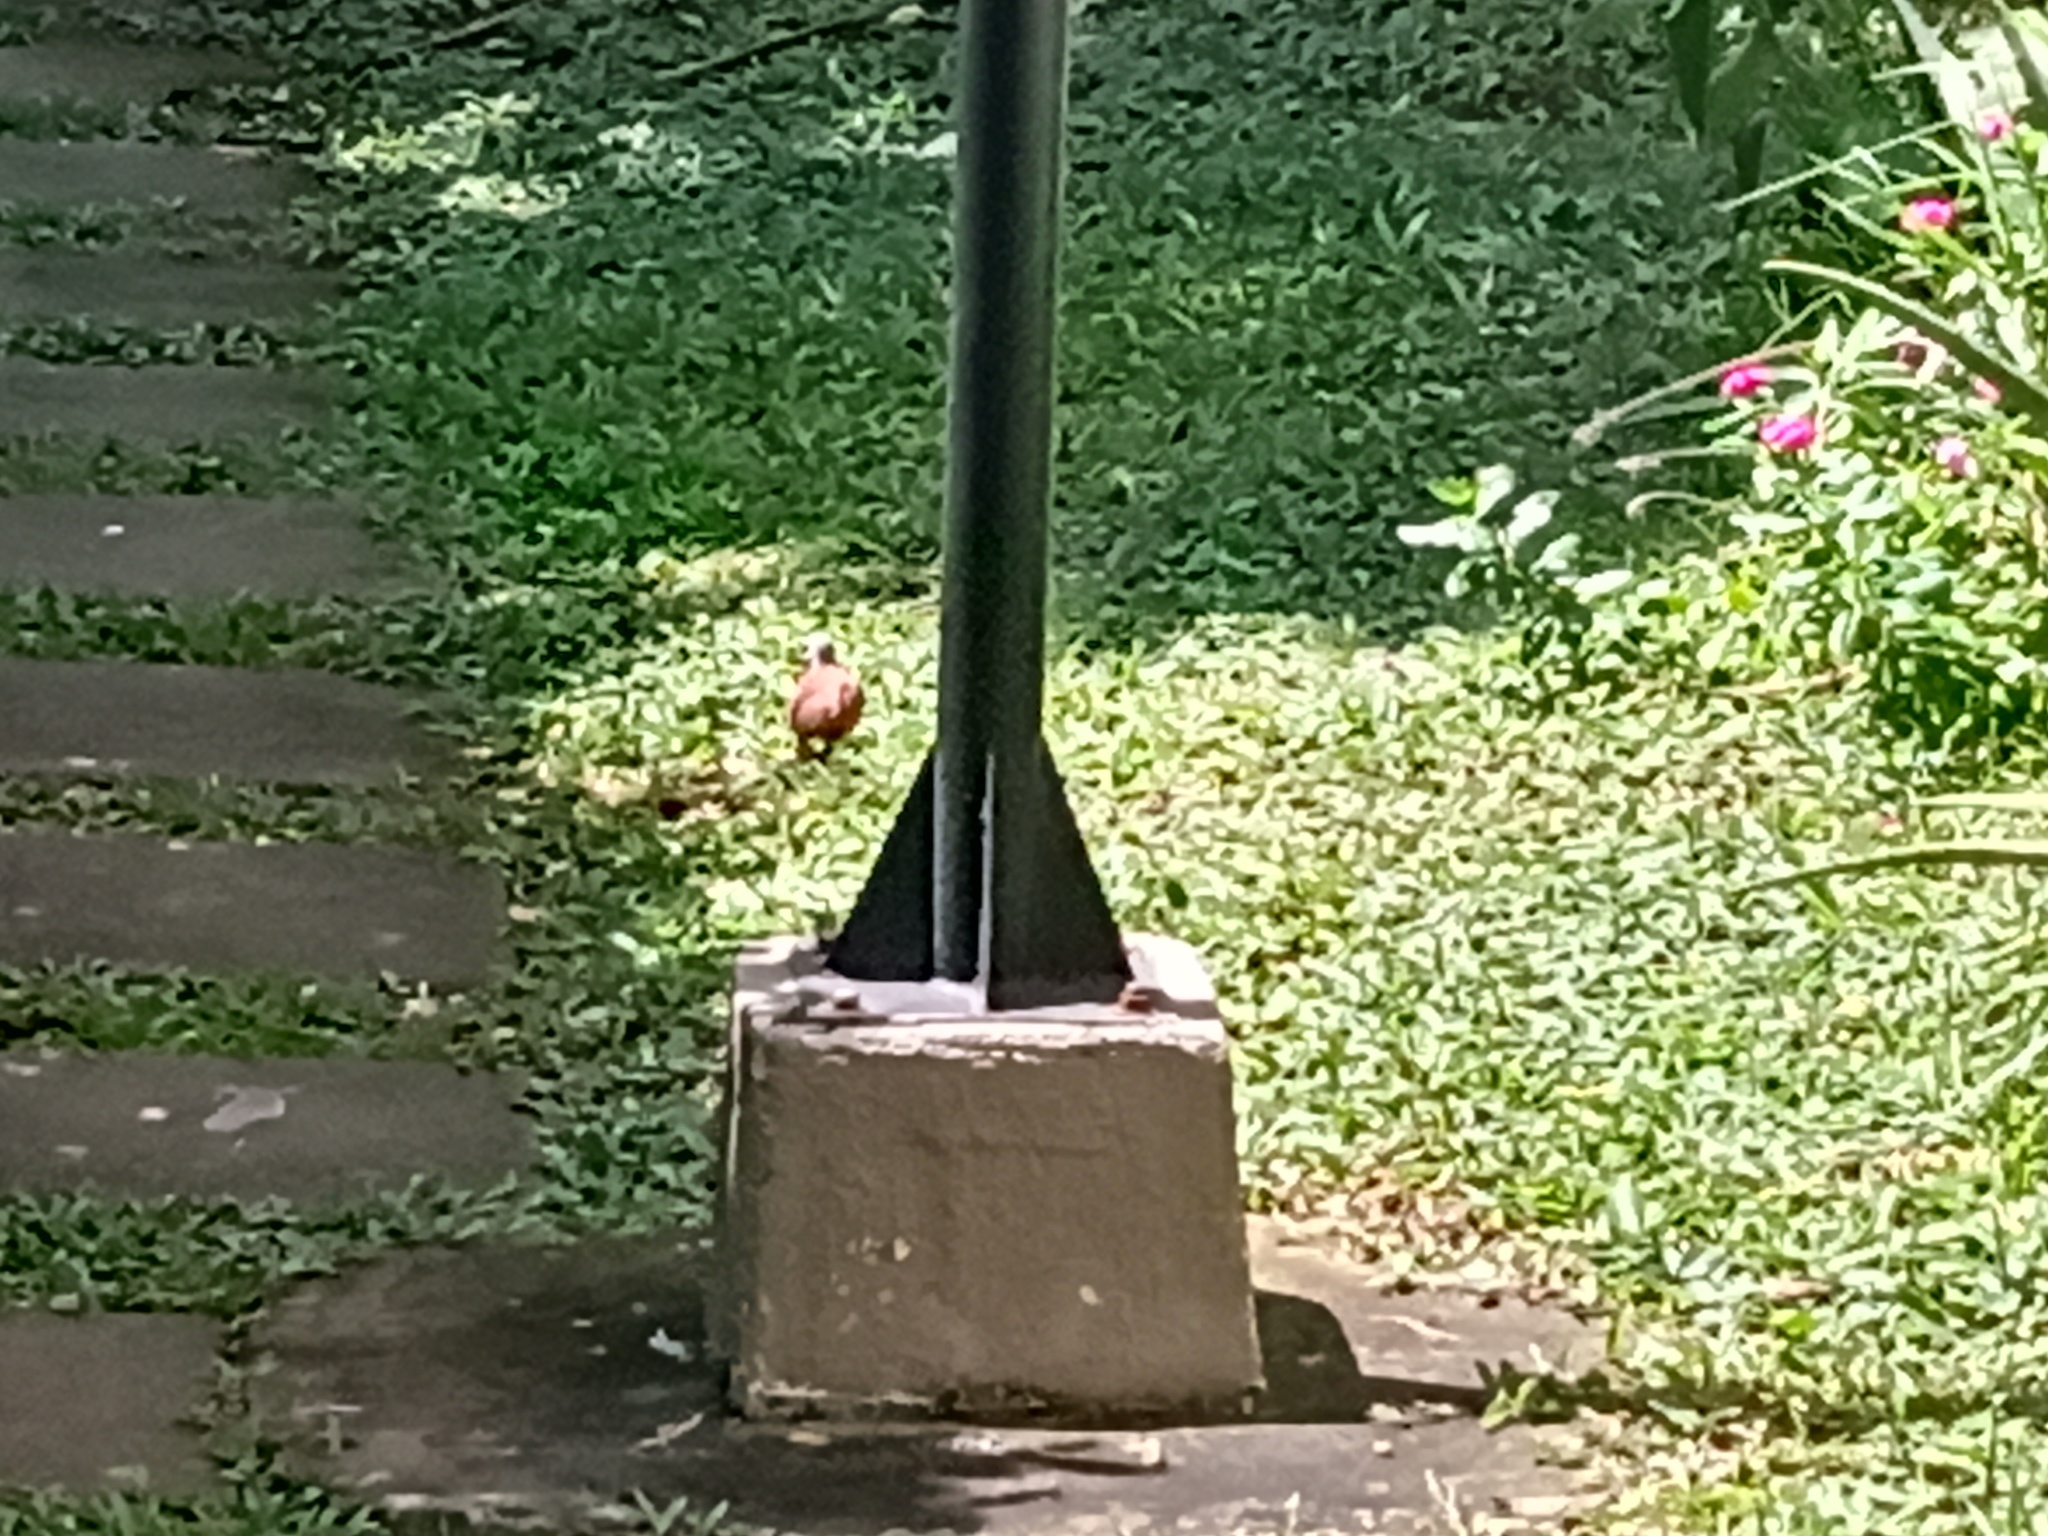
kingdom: Animalia
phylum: Chordata
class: Aves
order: Columbiformes
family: Columbidae
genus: Columbina
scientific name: Columbina talpacoti
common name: Ruddy ground dove
